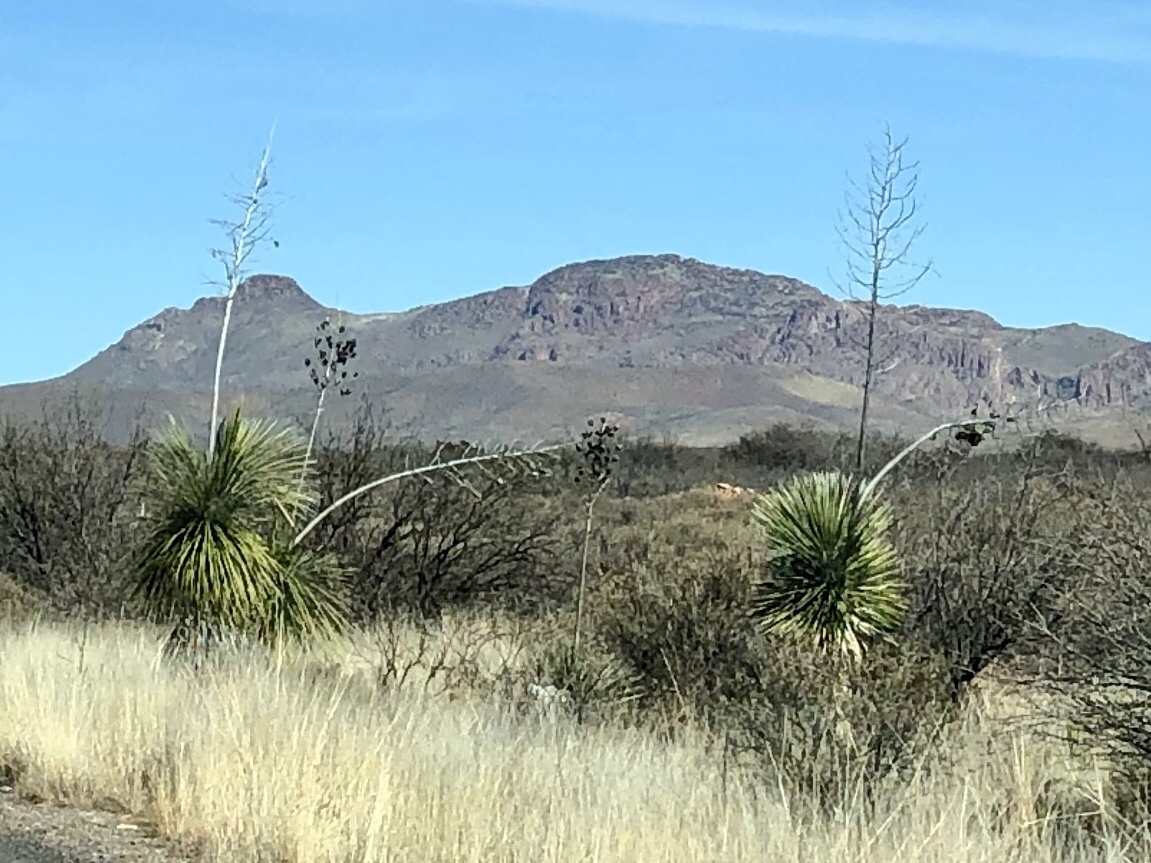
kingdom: Plantae
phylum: Tracheophyta
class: Liliopsida
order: Asparagales
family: Asparagaceae
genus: Yucca
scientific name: Yucca elata
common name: Palmella
